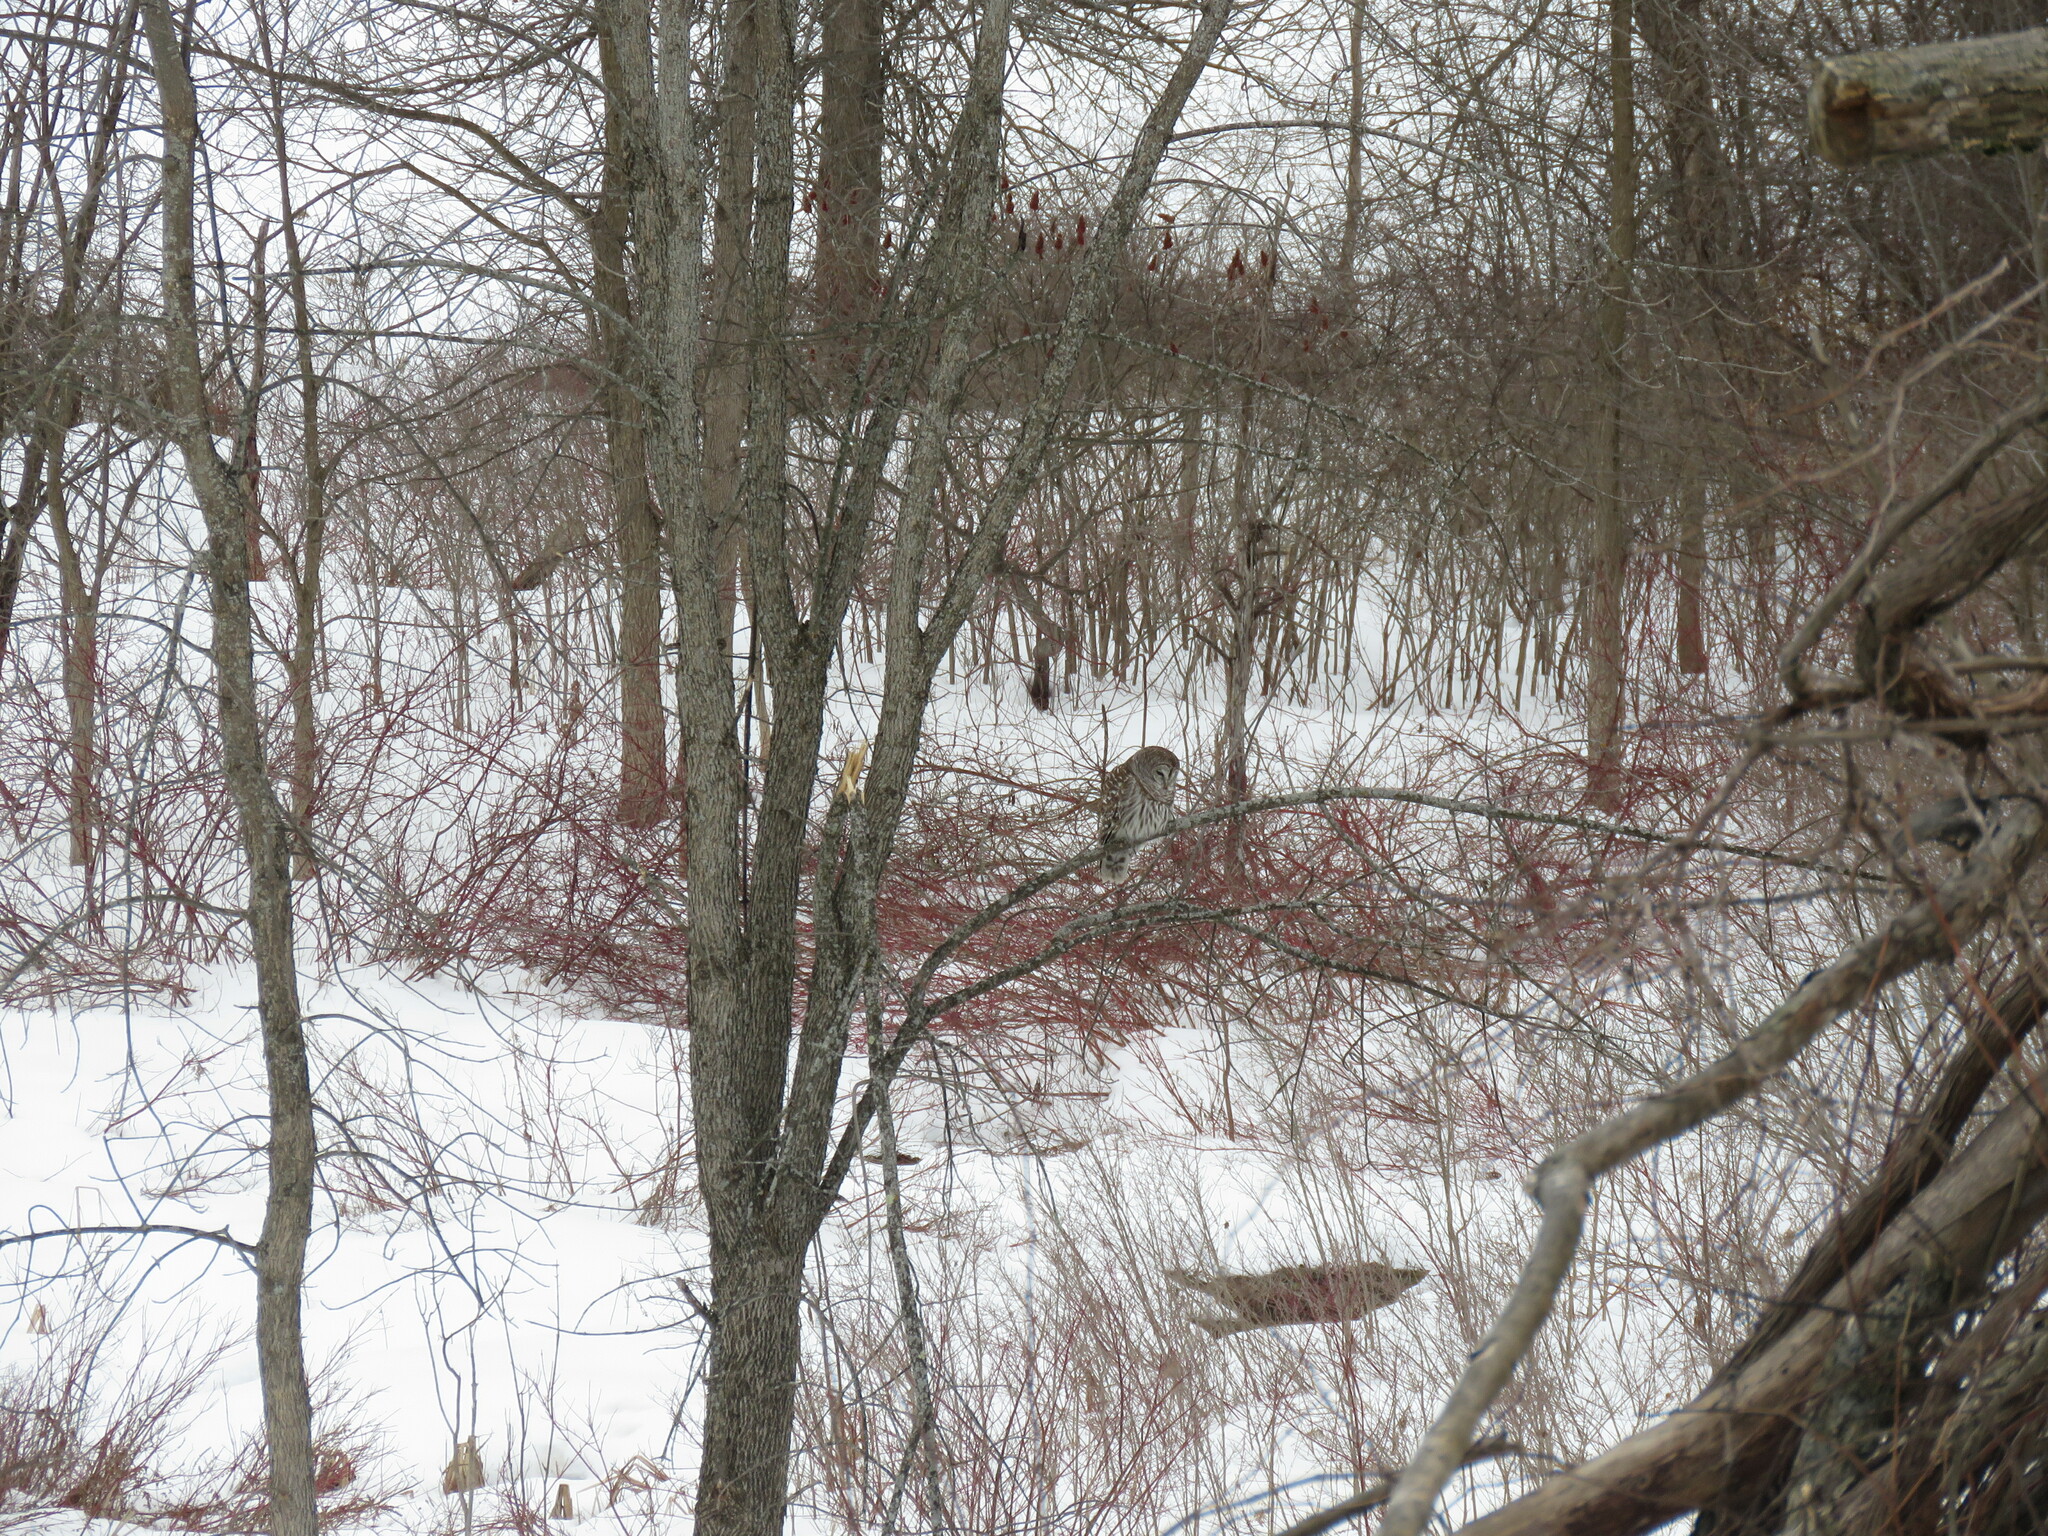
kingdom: Animalia
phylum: Chordata
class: Aves
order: Strigiformes
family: Strigidae
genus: Strix
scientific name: Strix varia
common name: Barred owl
